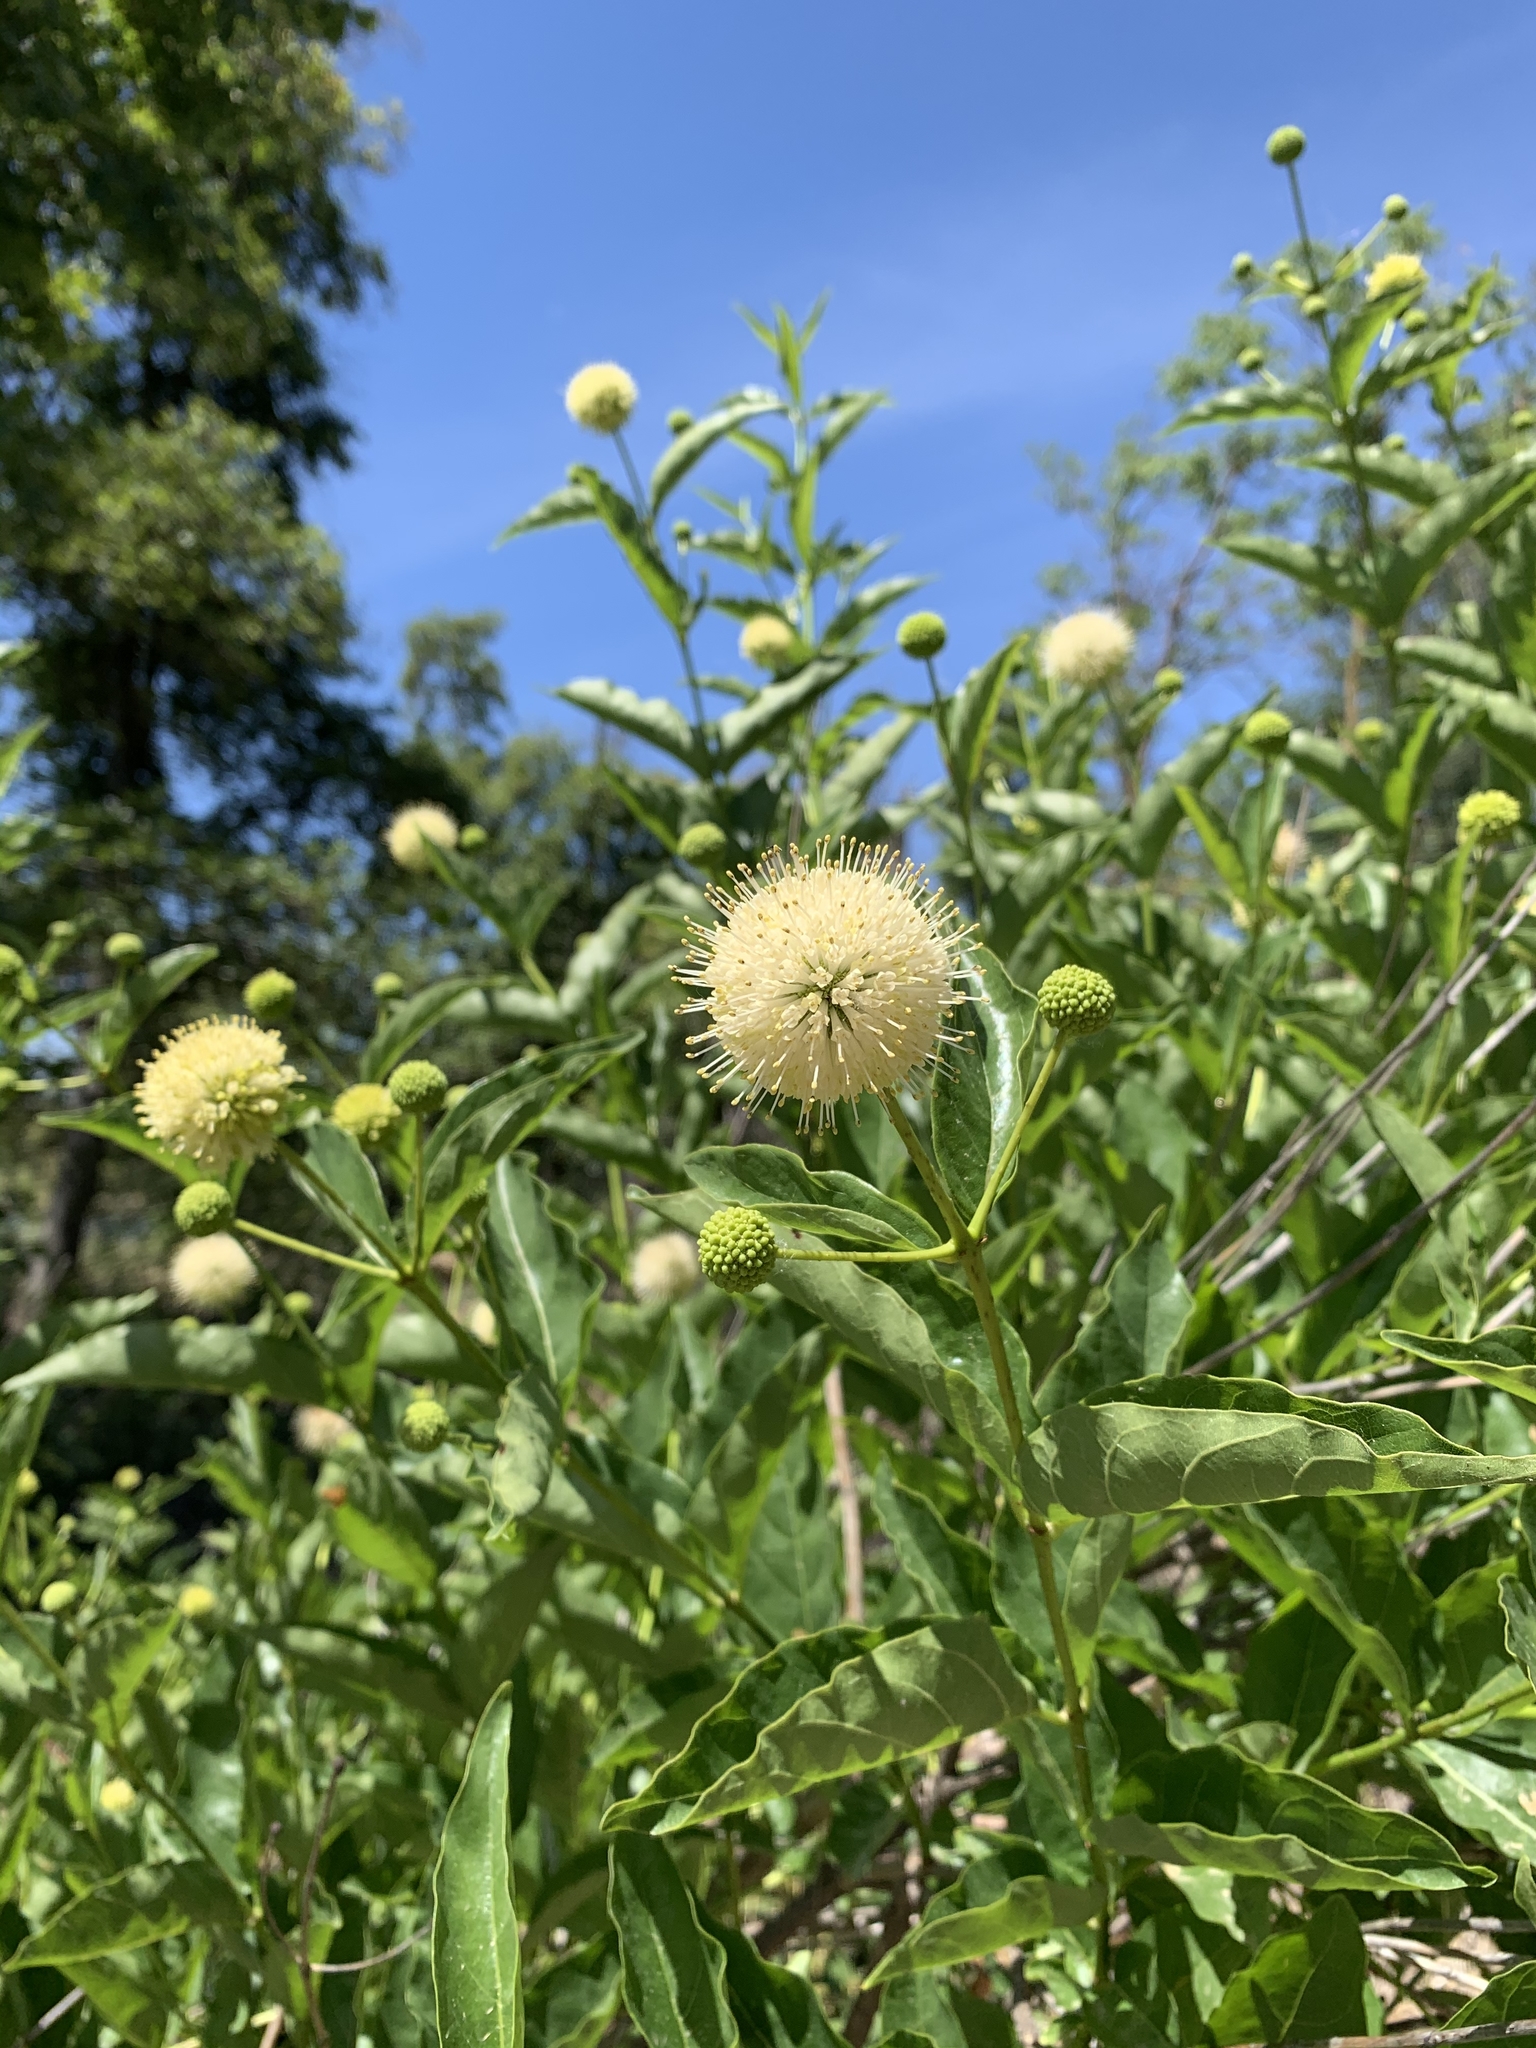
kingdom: Plantae
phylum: Tracheophyta
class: Magnoliopsida
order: Gentianales
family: Rubiaceae
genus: Cephalanthus
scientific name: Cephalanthus occidentalis
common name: Button-willow
